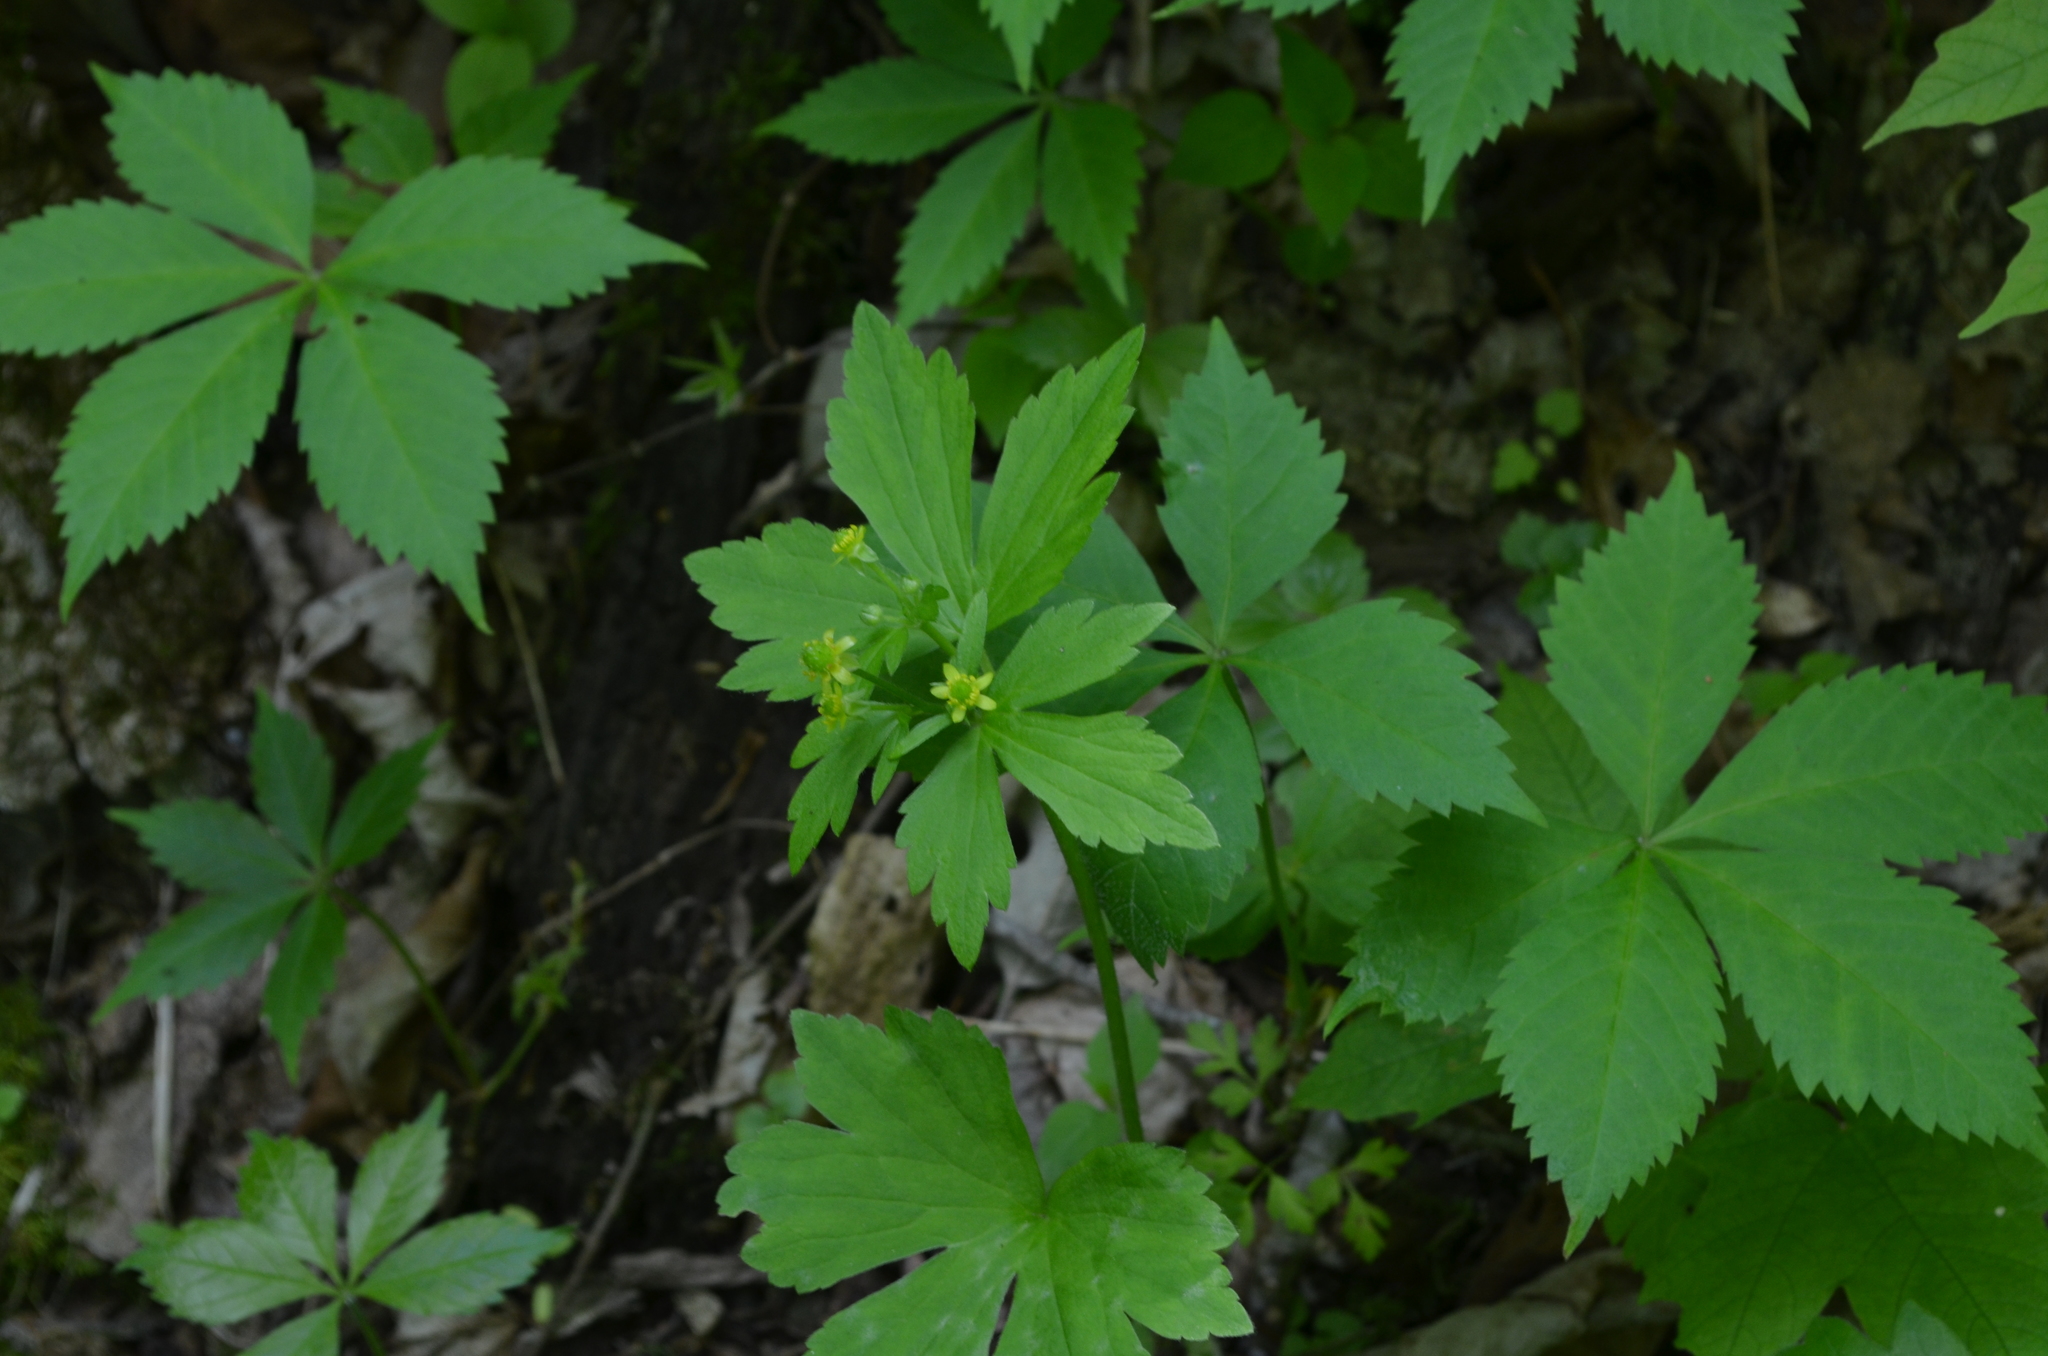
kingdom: Plantae
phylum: Tracheophyta
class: Magnoliopsida
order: Ranunculales
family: Ranunculaceae
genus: Ranunculus
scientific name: Ranunculus recurvatus
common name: Blisterwort
